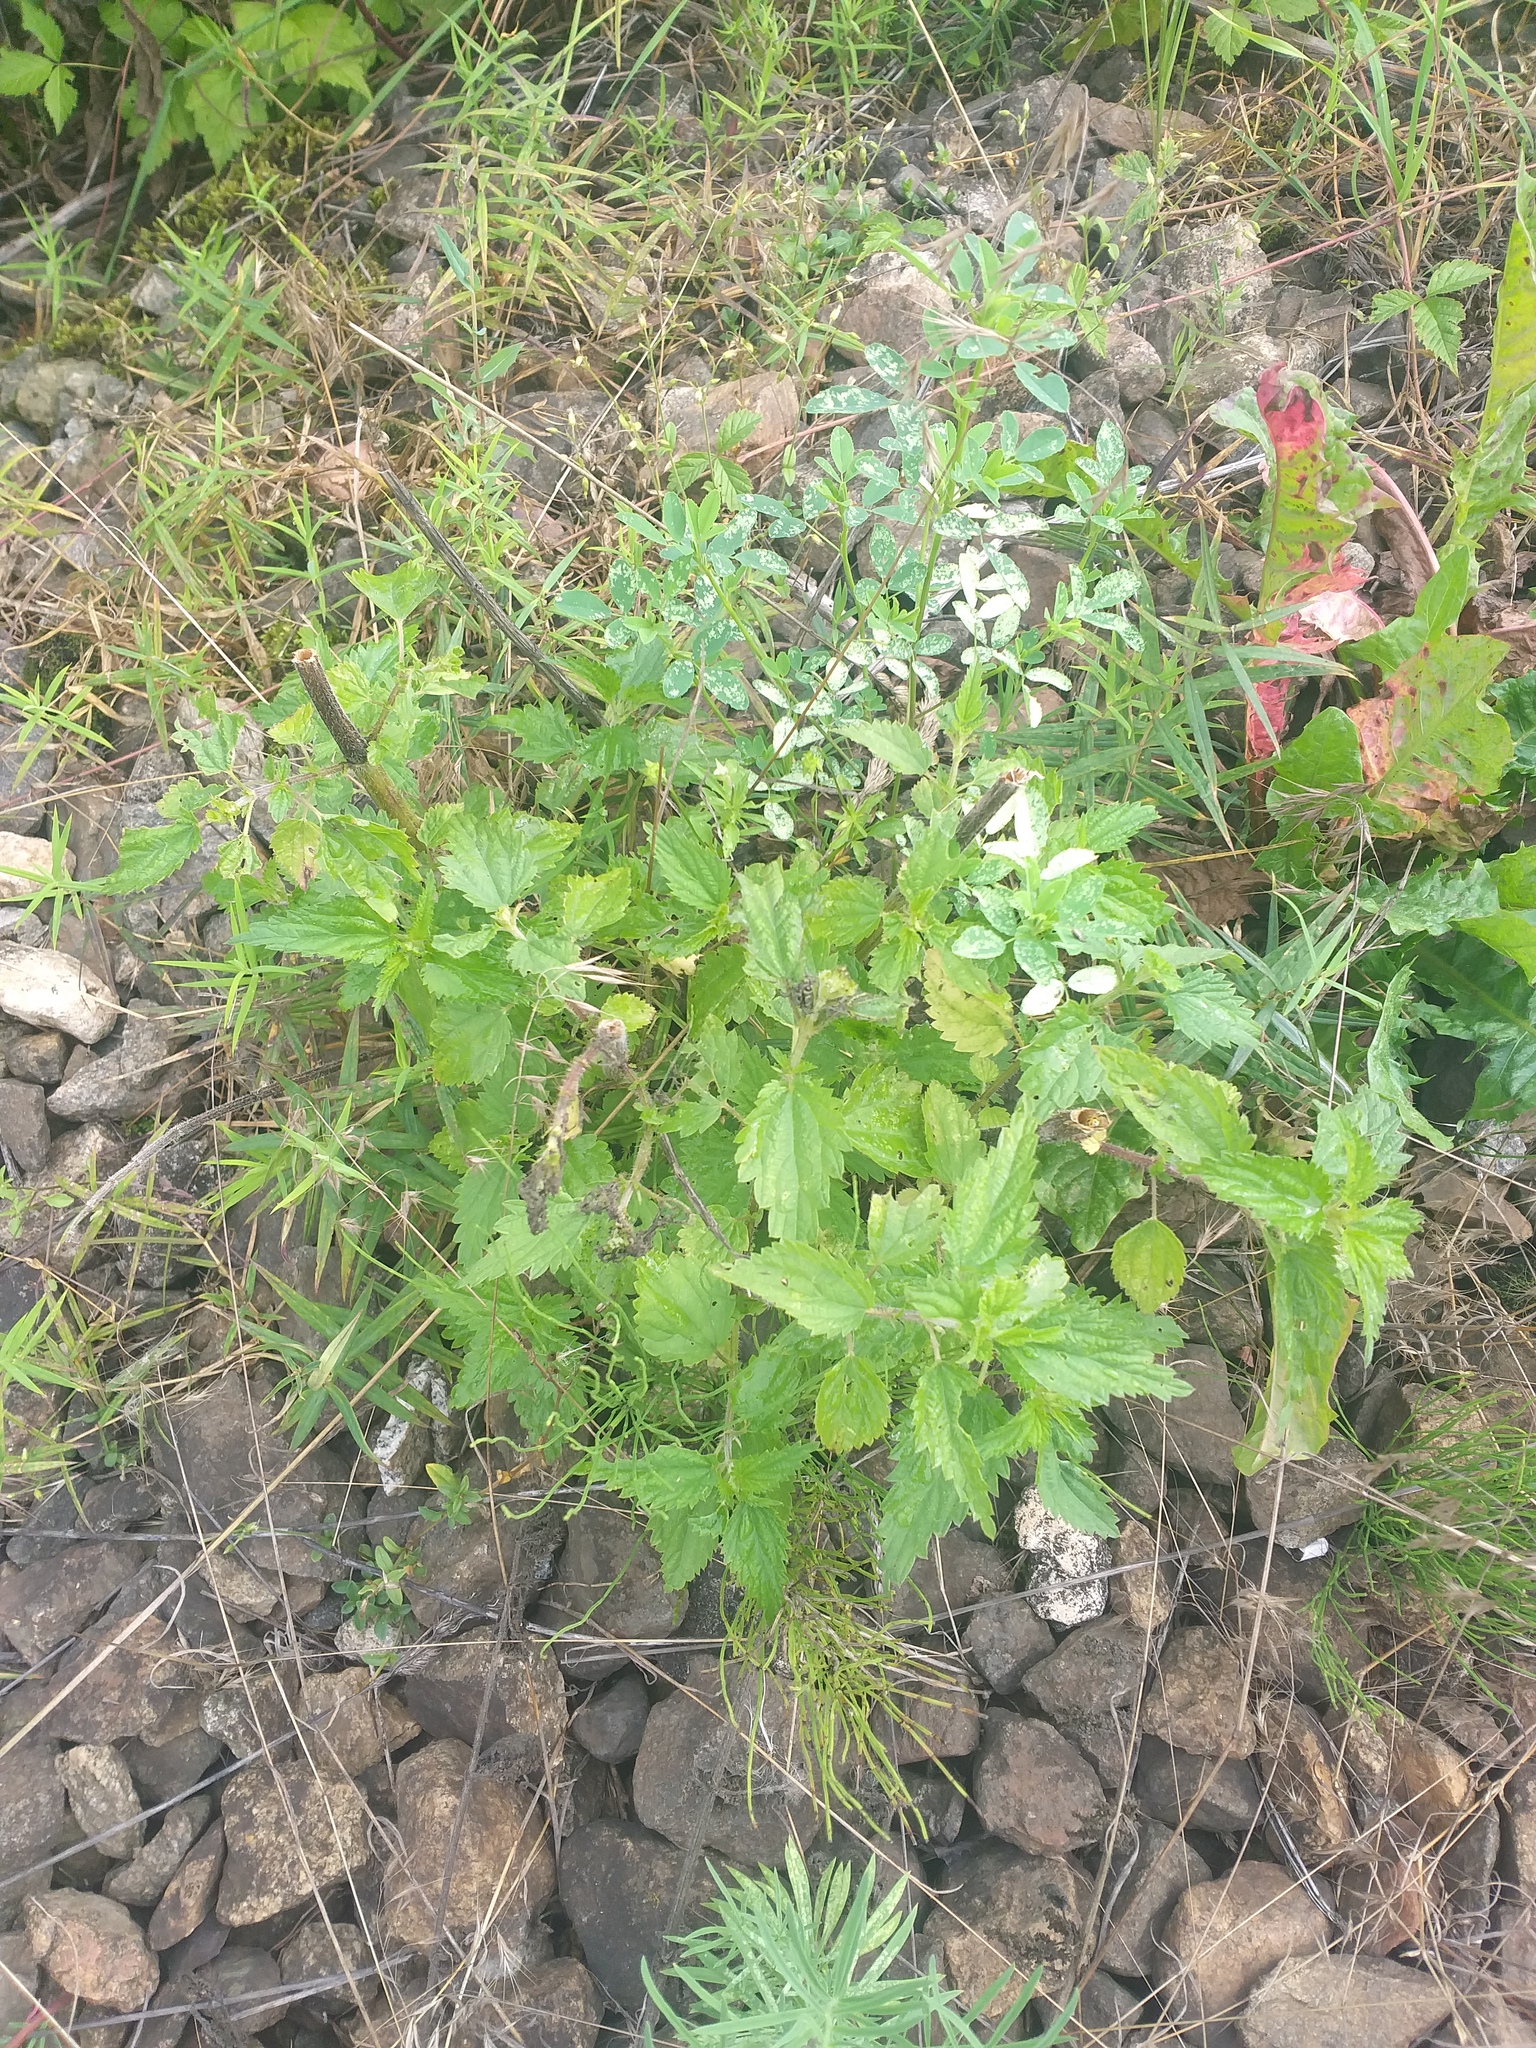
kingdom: Plantae
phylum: Tracheophyta
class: Magnoliopsida
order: Rosales
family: Urticaceae
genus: Urtica
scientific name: Urtica dioica
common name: Common nettle
